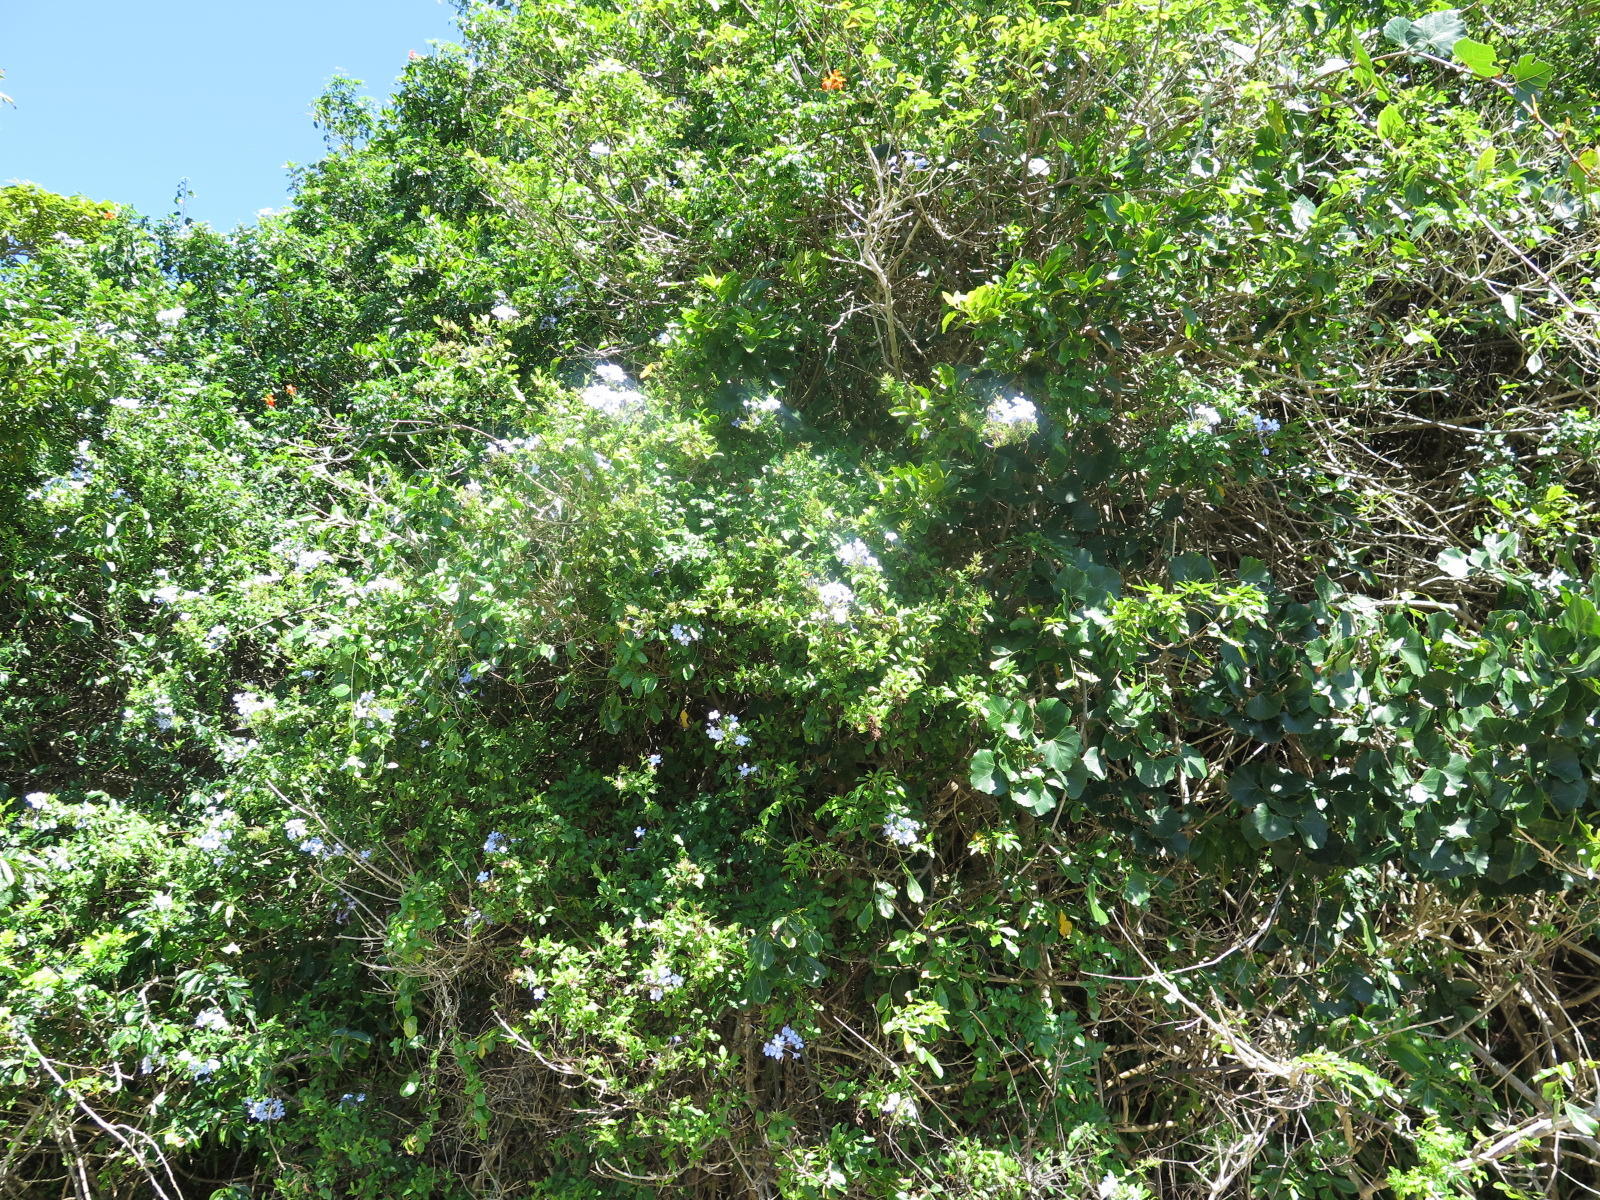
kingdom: Plantae
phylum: Tracheophyta
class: Magnoliopsida
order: Caryophyllales
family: Plumbaginaceae
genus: Plumbago
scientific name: Plumbago auriculata
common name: Cape leadwort
